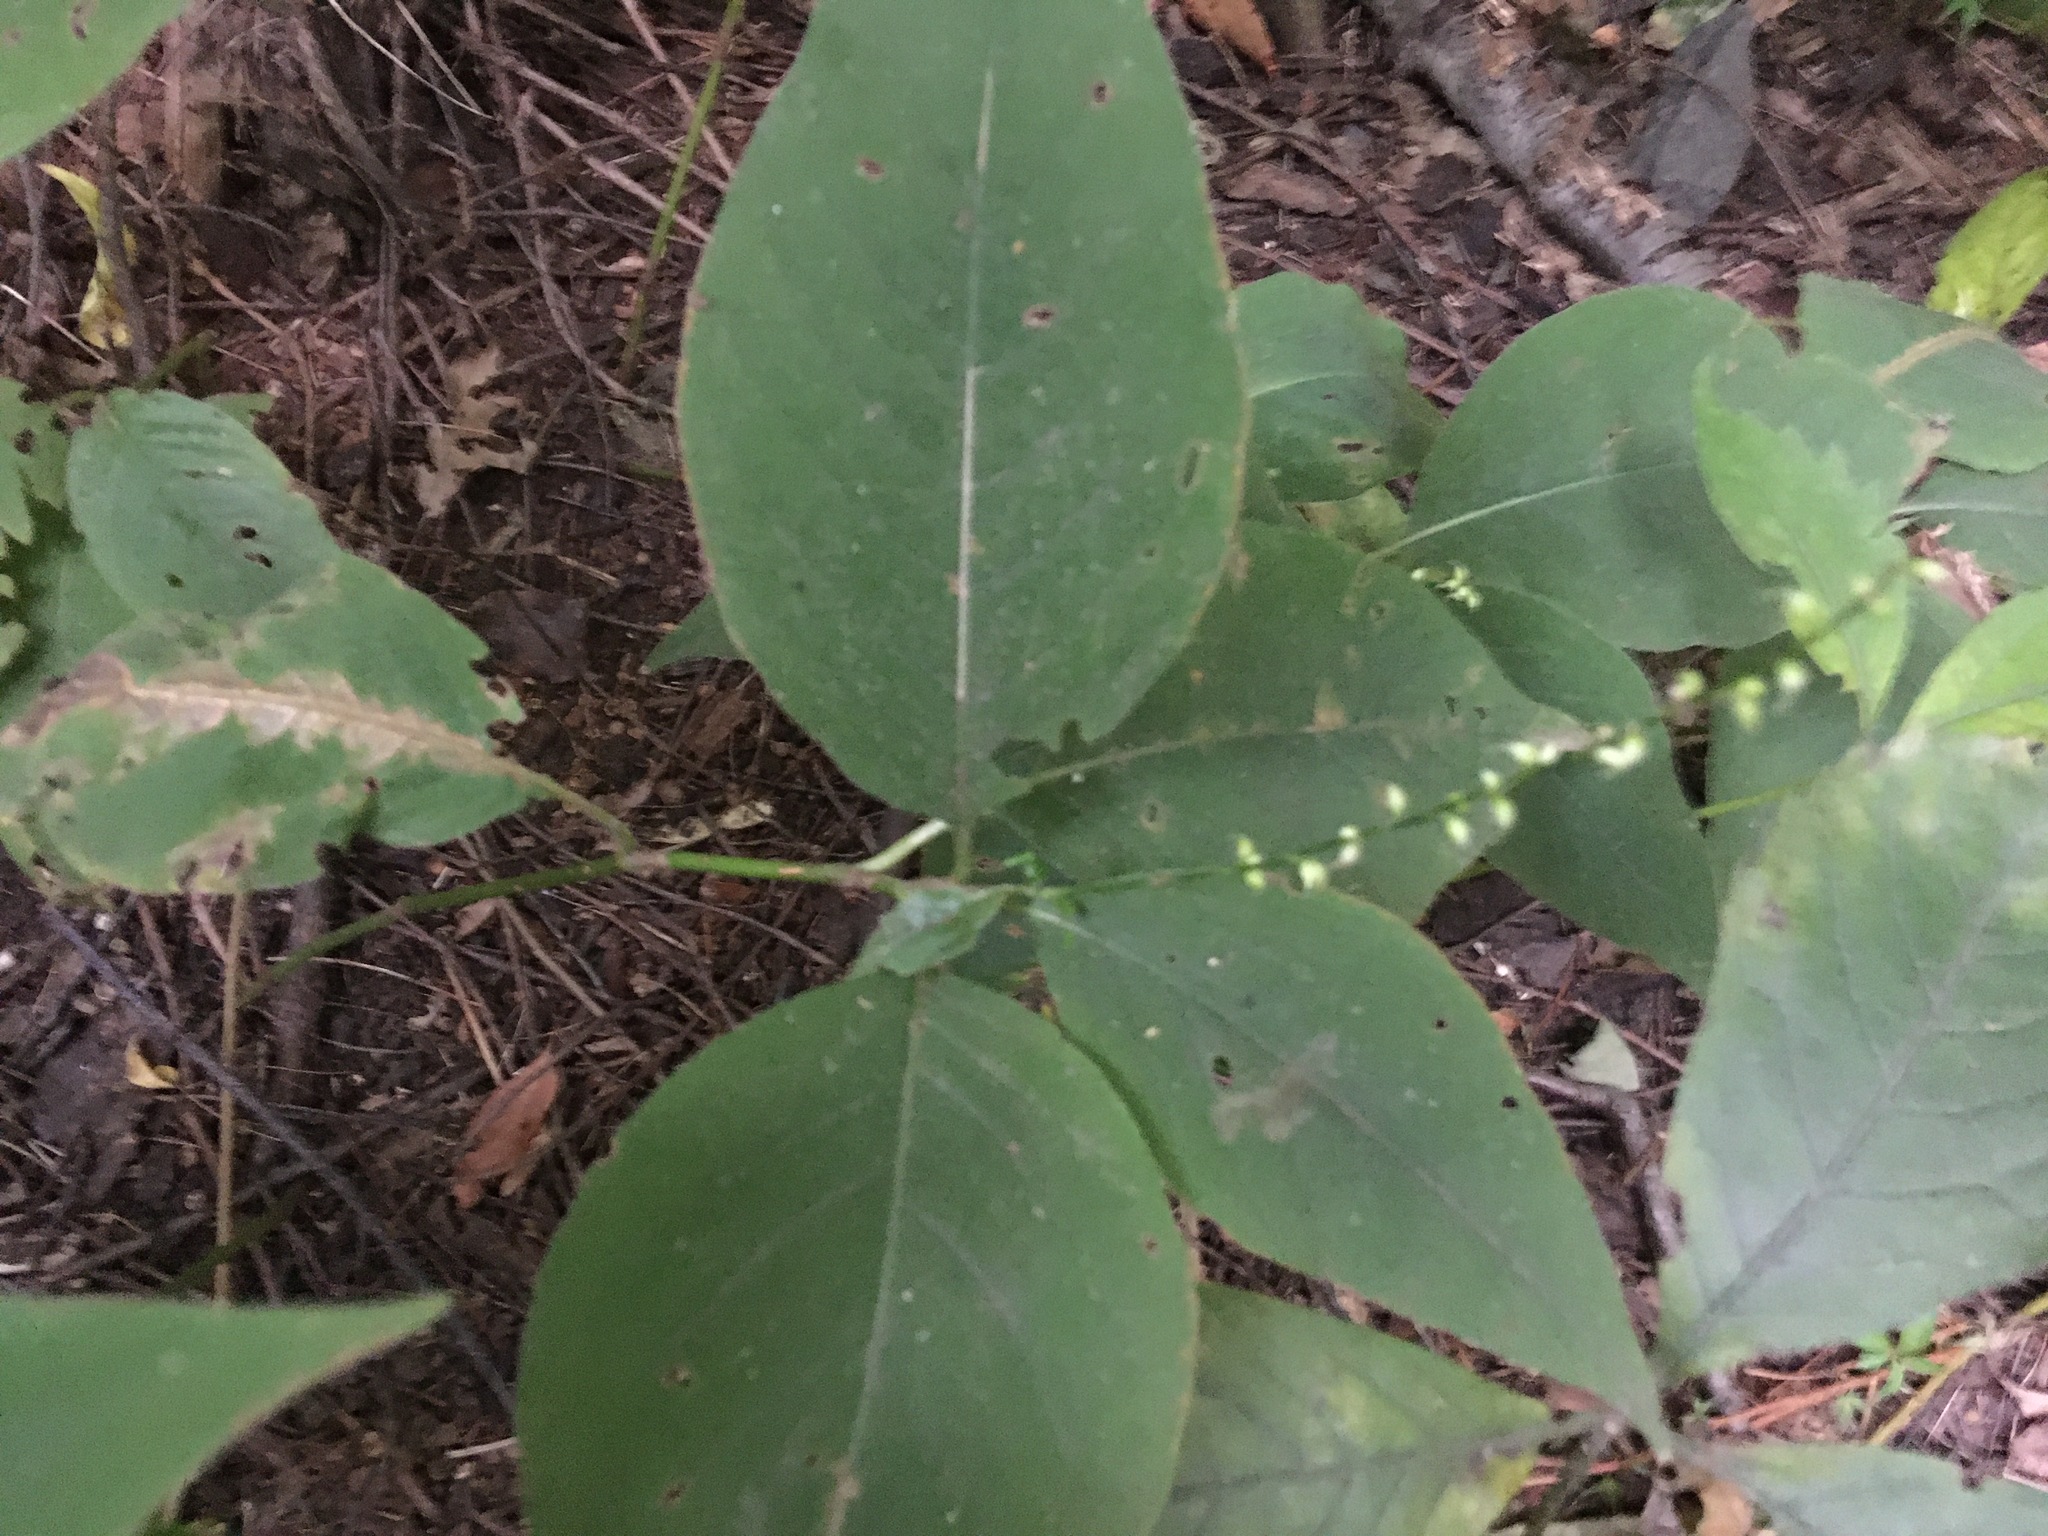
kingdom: Plantae
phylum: Tracheophyta
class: Magnoliopsida
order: Caryophyllales
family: Polygonaceae
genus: Persicaria
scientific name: Persicaria virginiana
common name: Jumpseed
